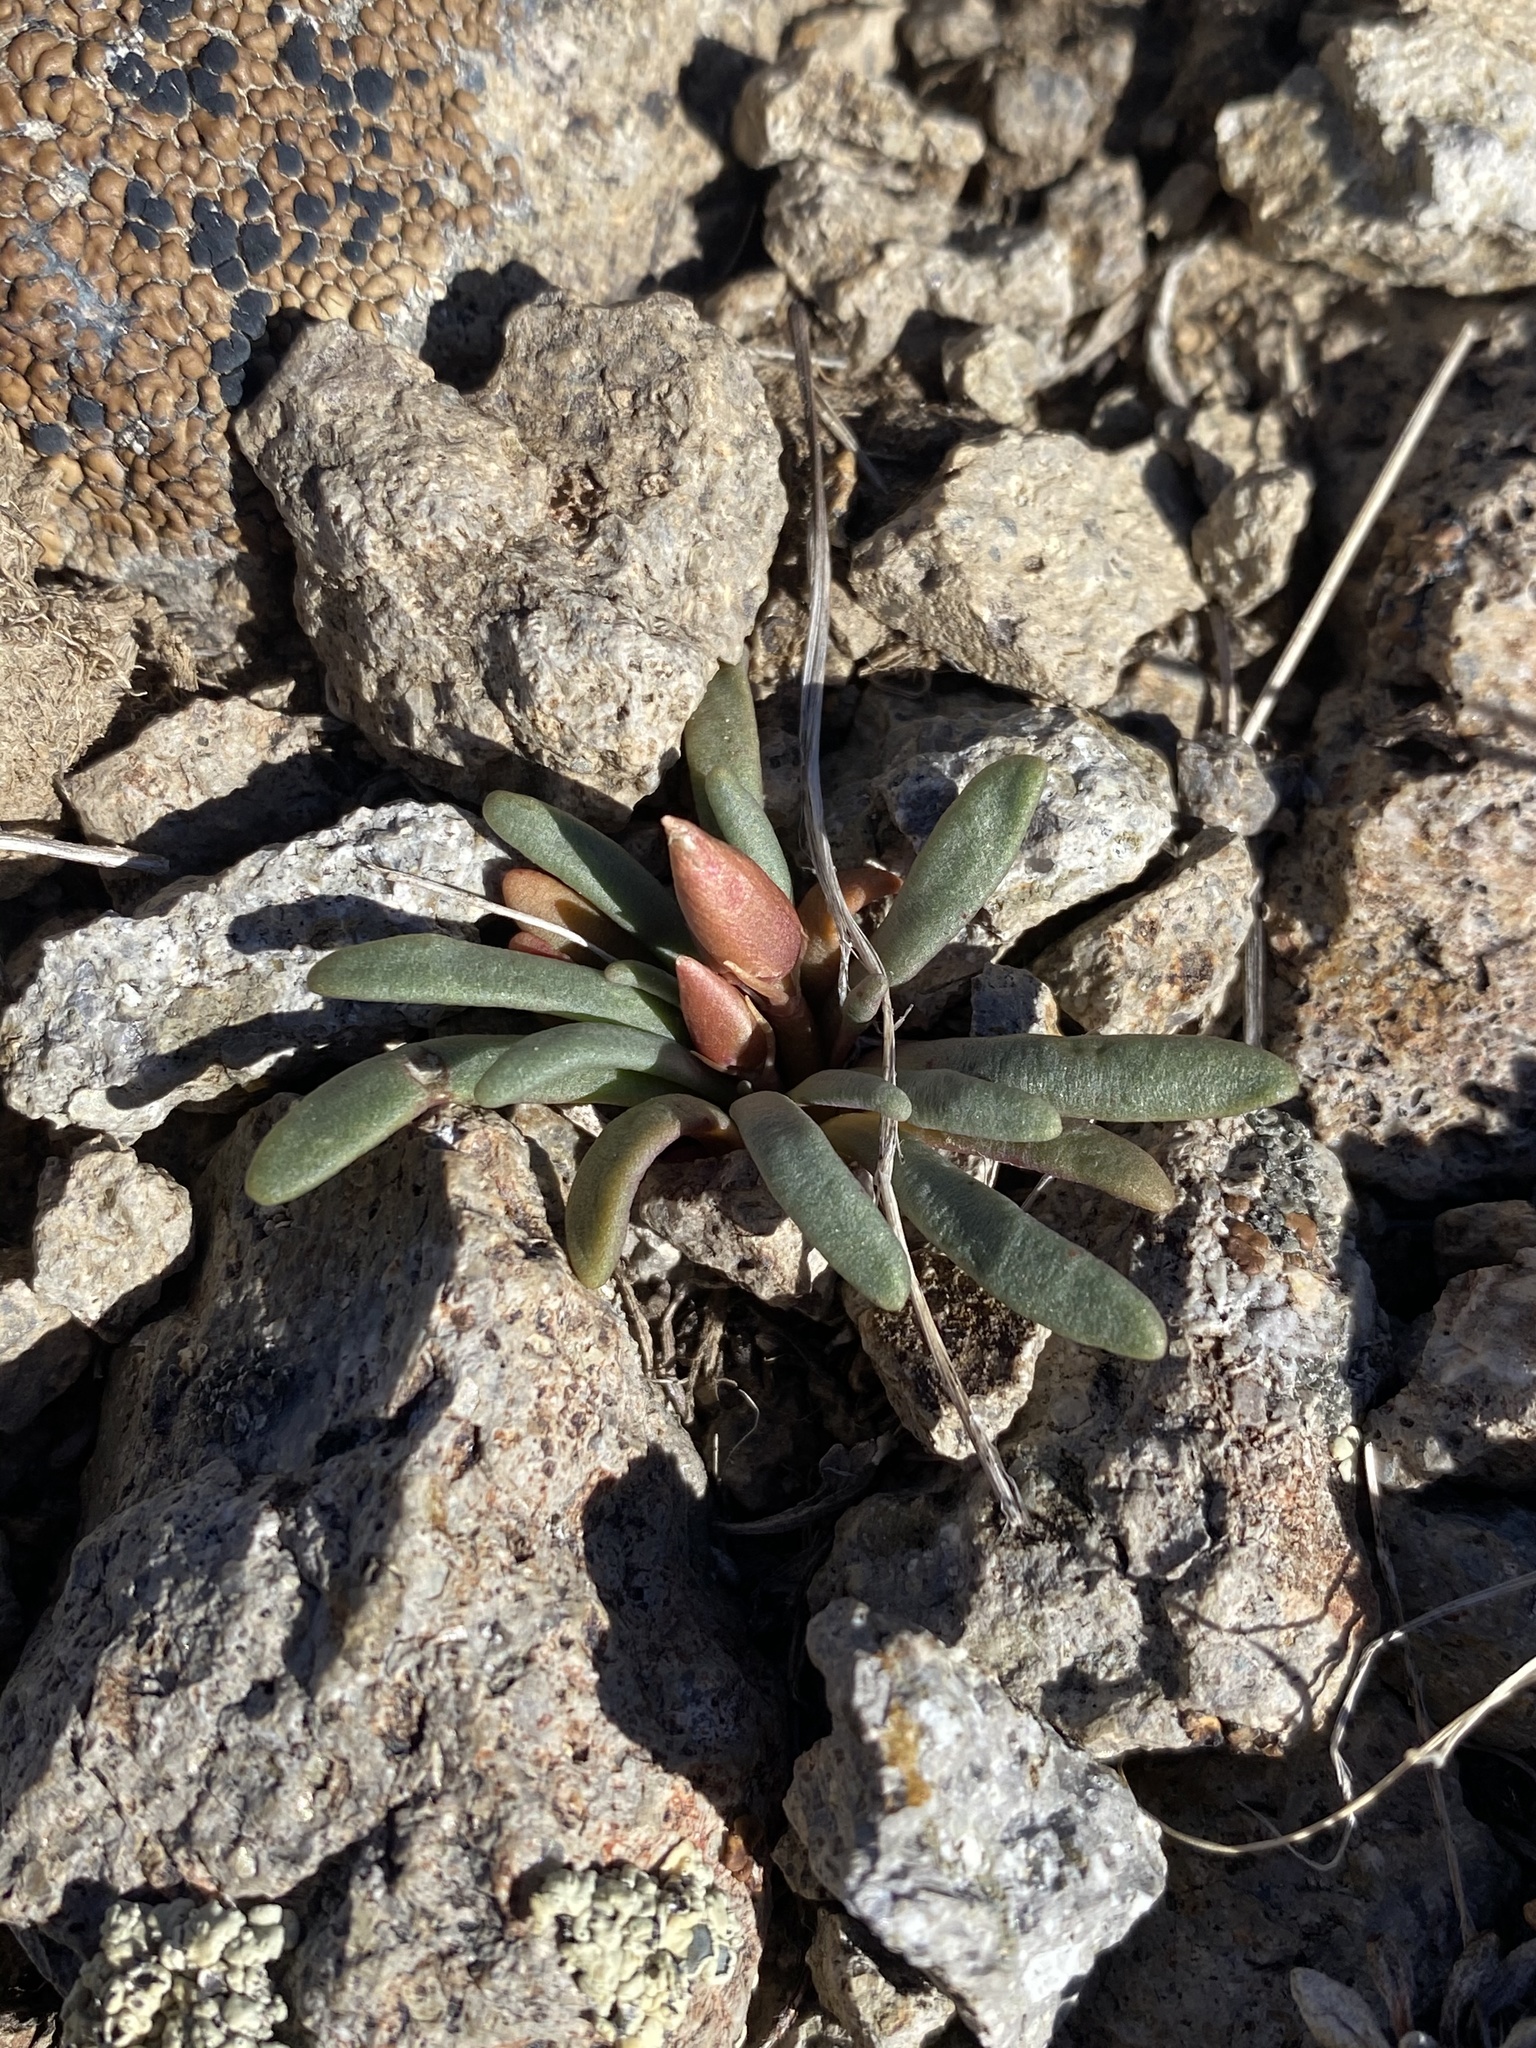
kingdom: Plantae
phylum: Tracheophyta
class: Magnoliopsida
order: Caryophyllales
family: Montiaceae
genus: Lewisia
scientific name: Lewisia rediviva
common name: Bitter-root
